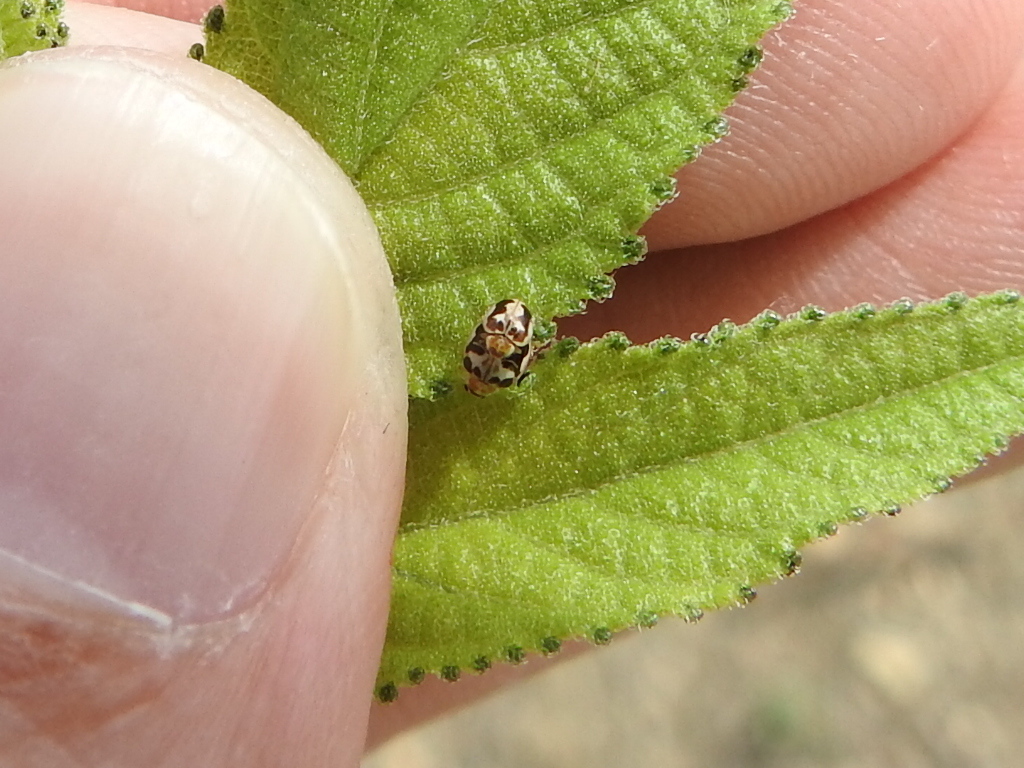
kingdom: Animalia
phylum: Arthropoda
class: Insecta
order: Coleoptera
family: Coccinellidae
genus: Psyllobora
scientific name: Psyllobora renifer
